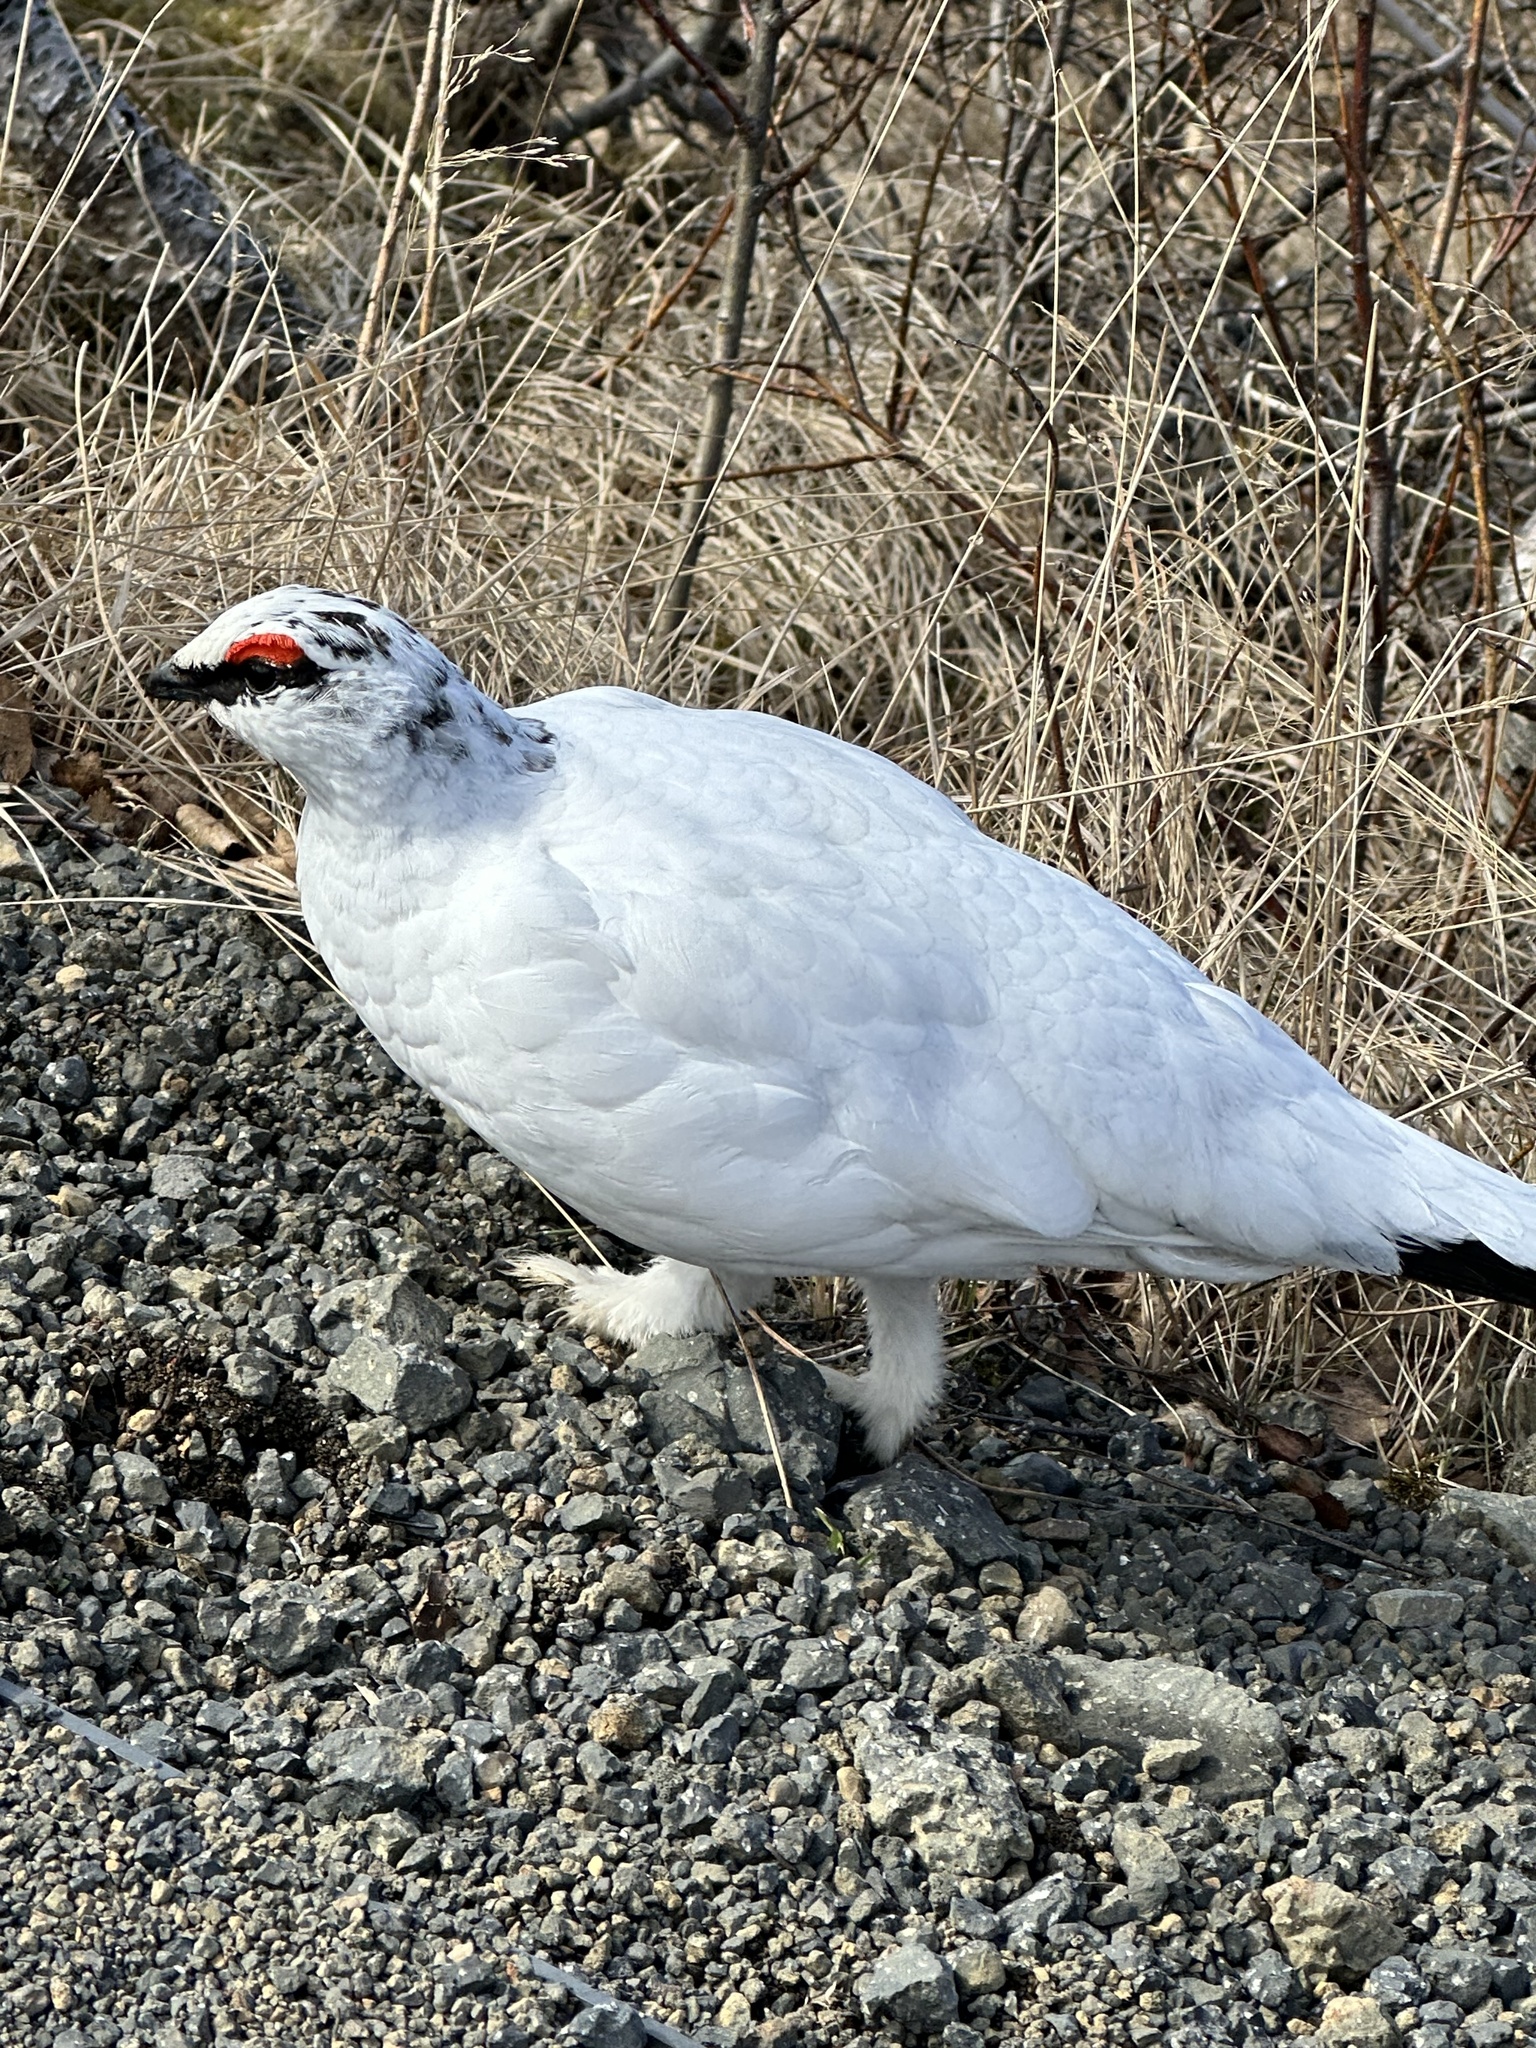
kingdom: Animalia
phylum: Chordata
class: Aves
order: Galliformes
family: Phasianidae
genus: Lagopus
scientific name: Lagopus muta
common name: Rock ptarmigan
